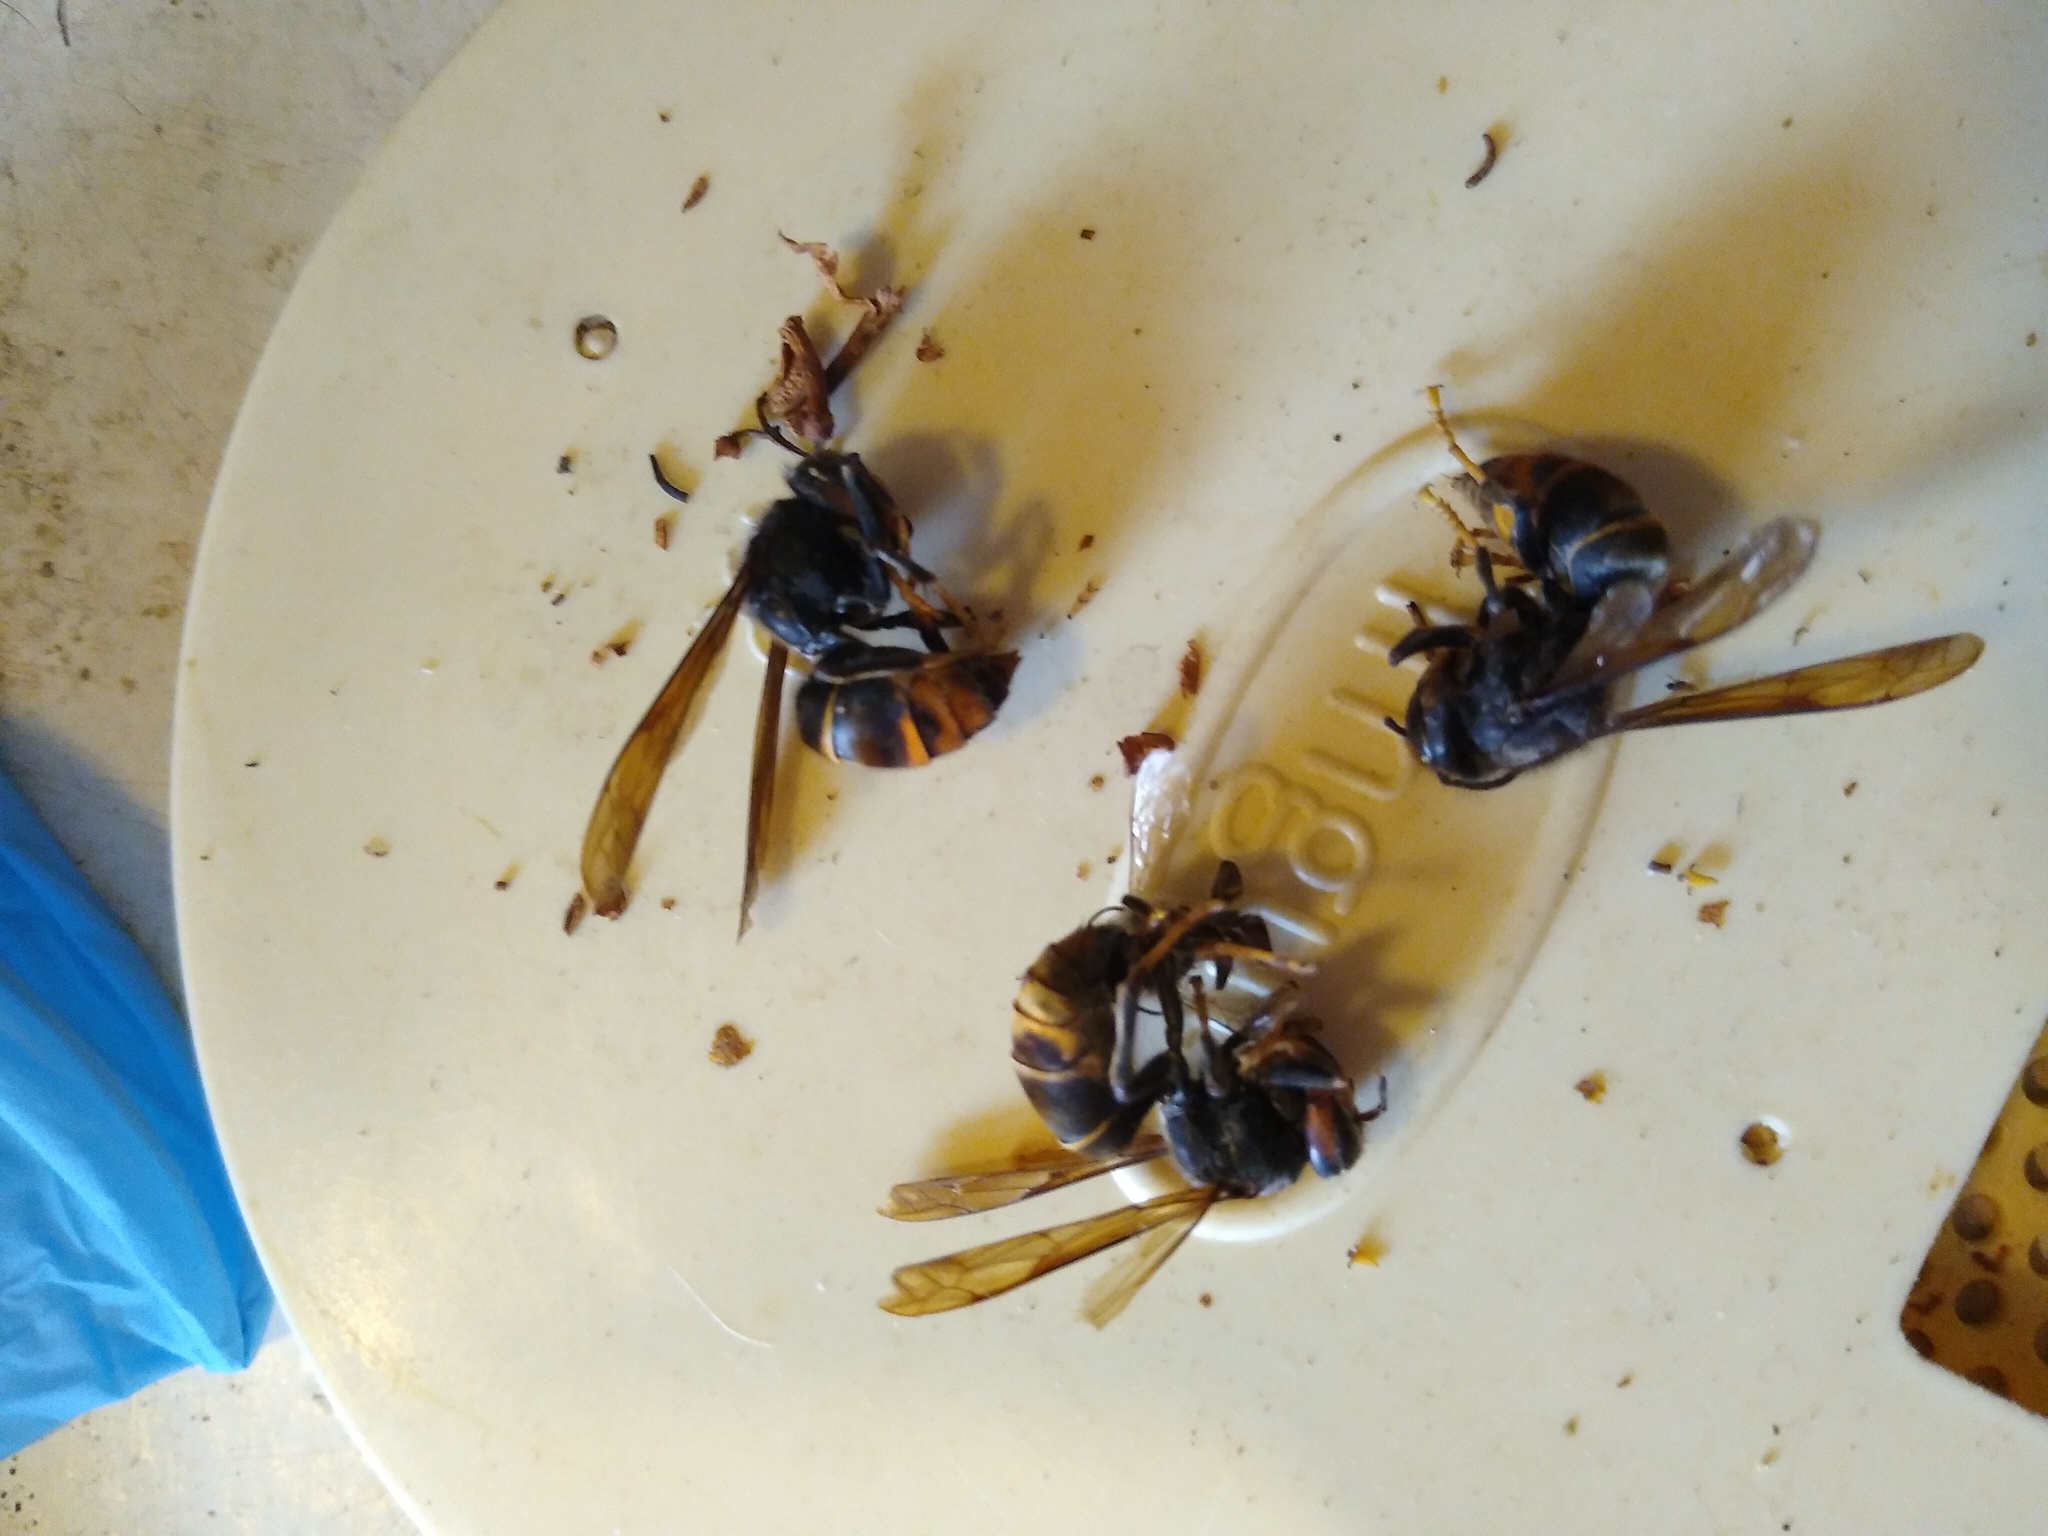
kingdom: Animalia
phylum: Arthropoda
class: Insecta
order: Hymenoptera
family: Vespidae
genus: Vespa
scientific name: Vespa velutina
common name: Asian hornet
